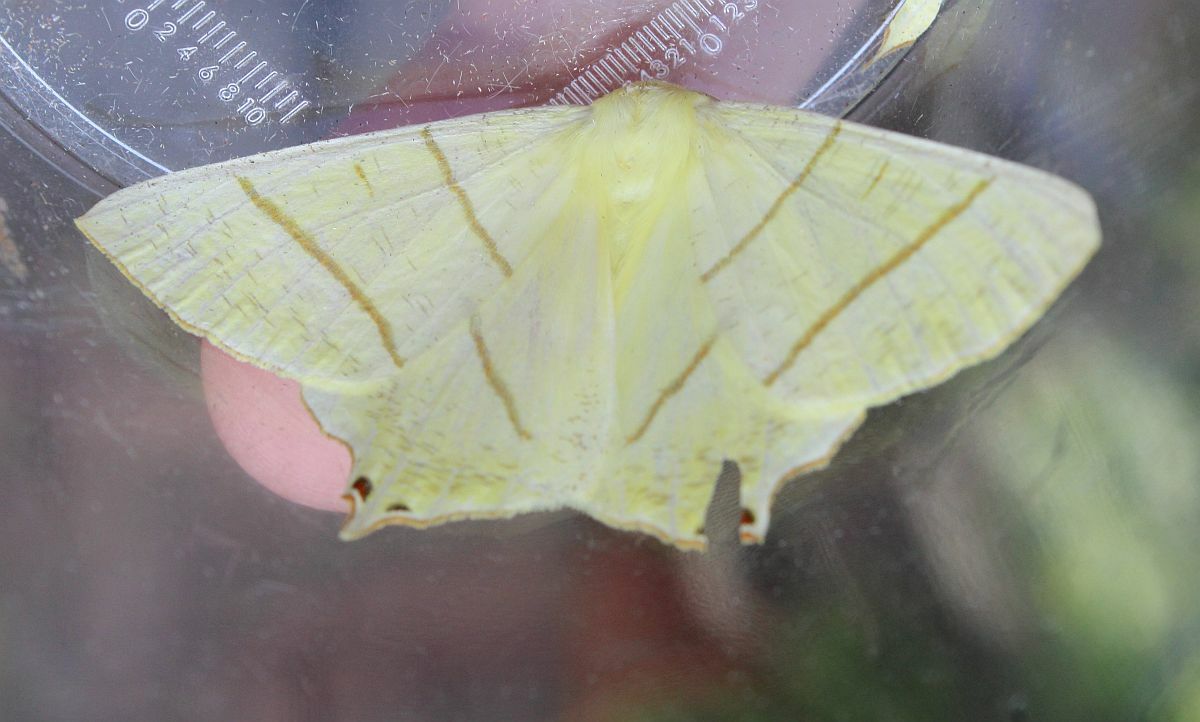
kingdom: Animalia
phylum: Arthropoda
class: Insecta
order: Lepidoptera
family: Geometridae
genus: Ourapteryx
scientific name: Ourapteryx sambucaria
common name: Swallow-tailed moth
